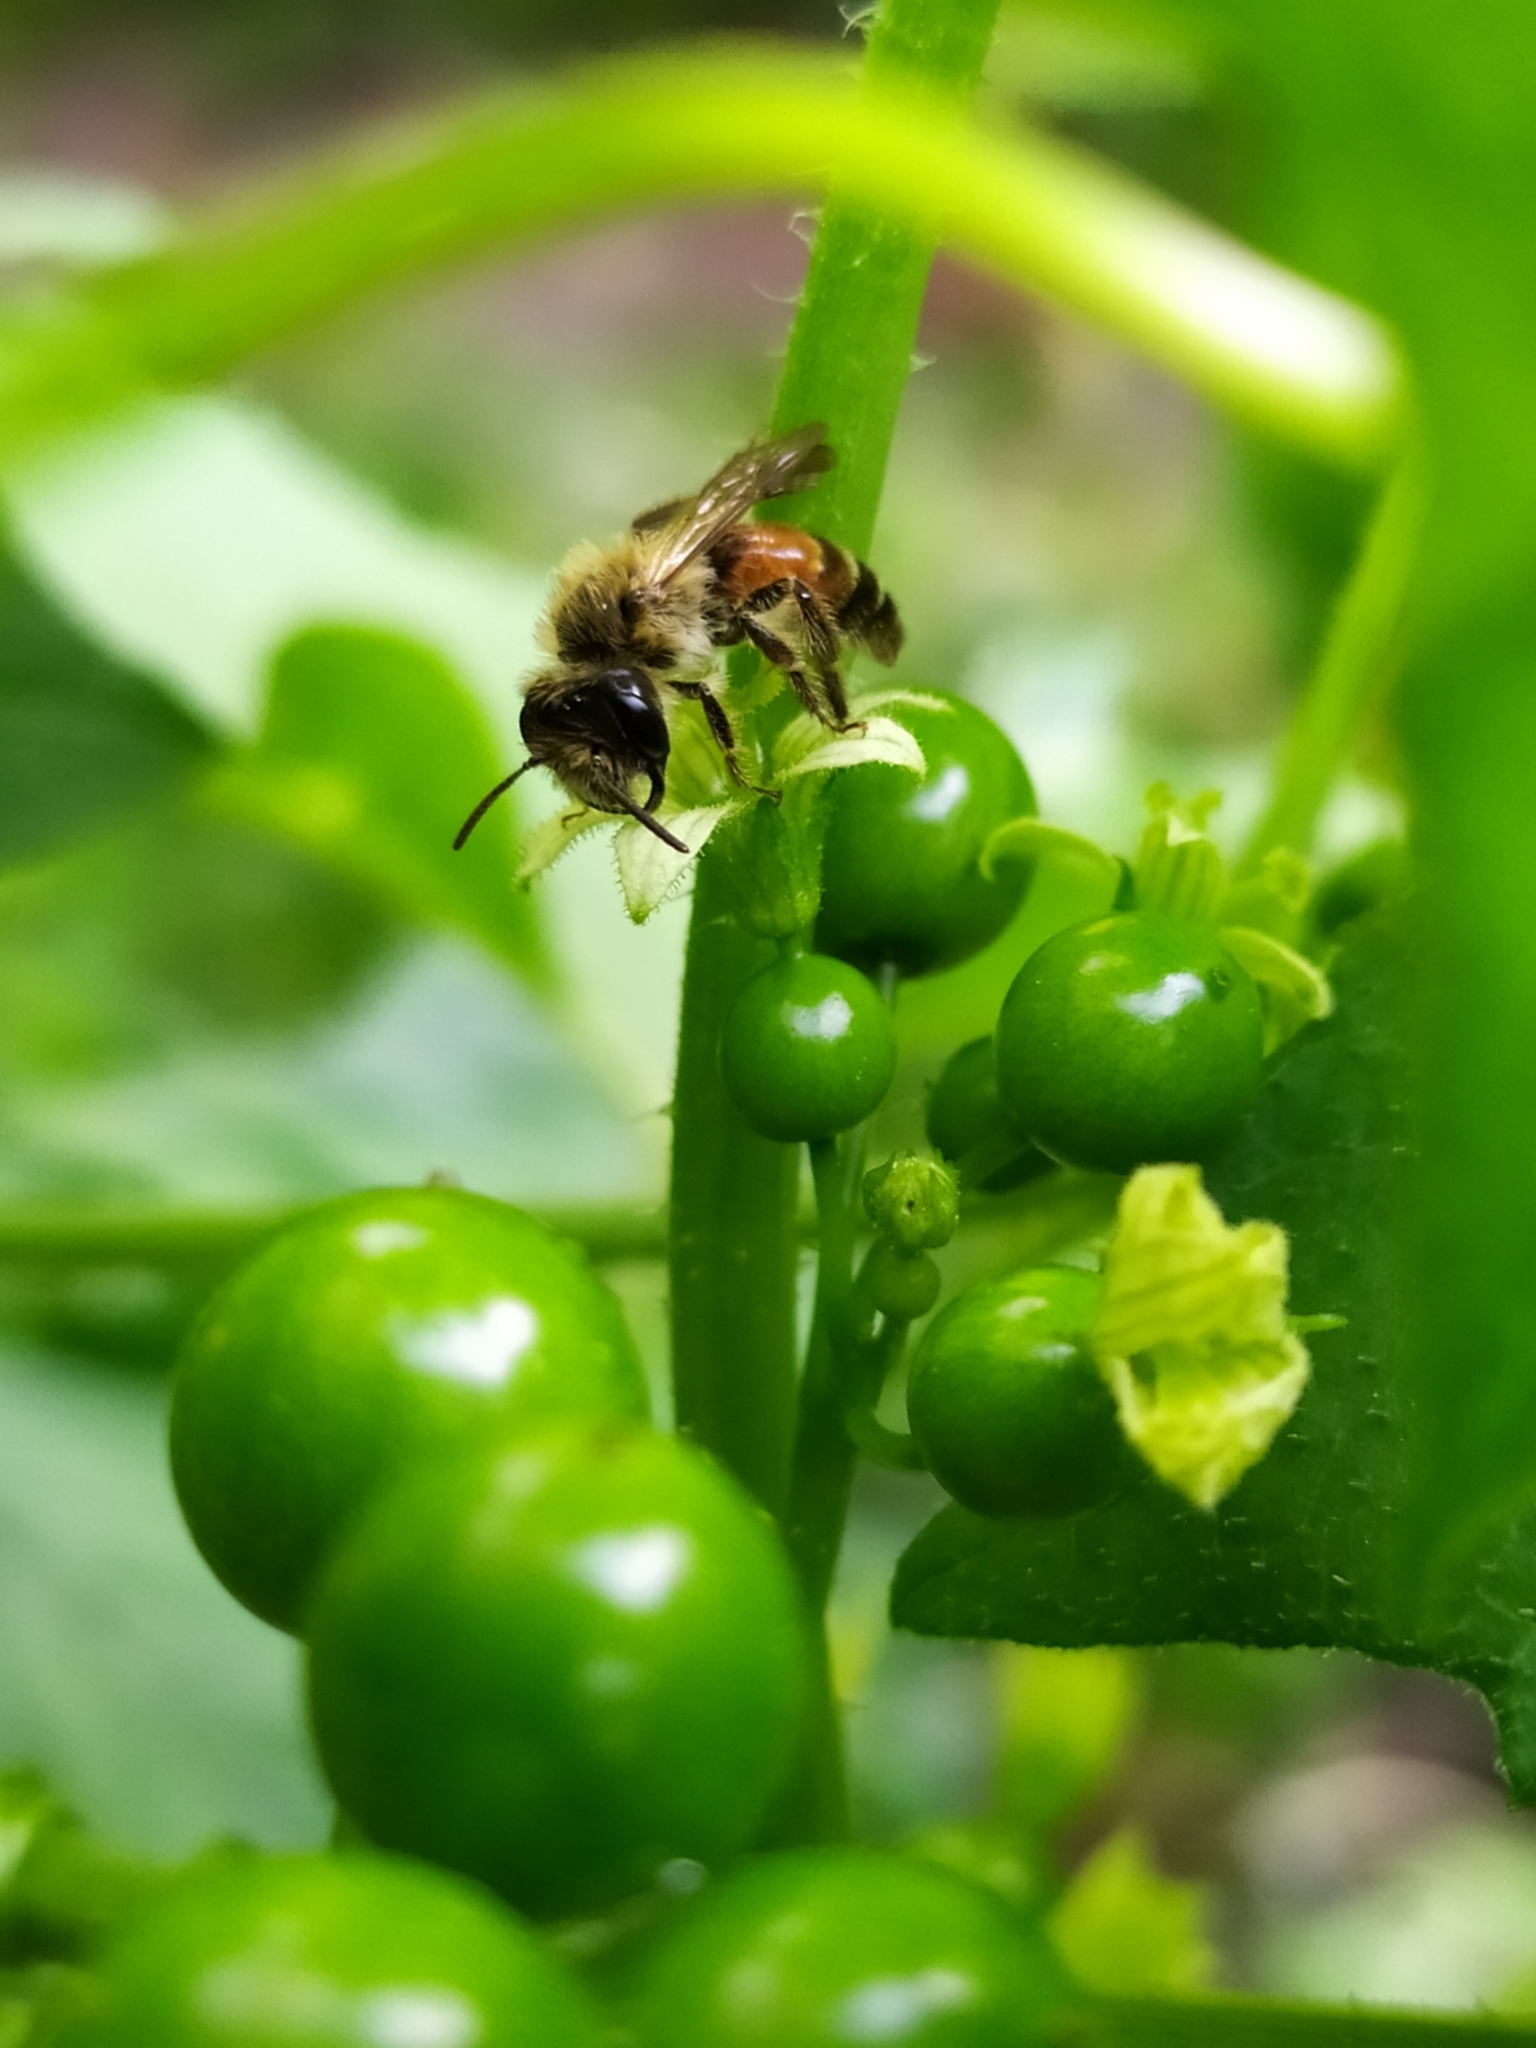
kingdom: Animalia
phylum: Arthropoda
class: Insecta
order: Hymenoptera
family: Andrenidae
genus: Andrena
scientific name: Andrena florea
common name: Bryony mining bee
